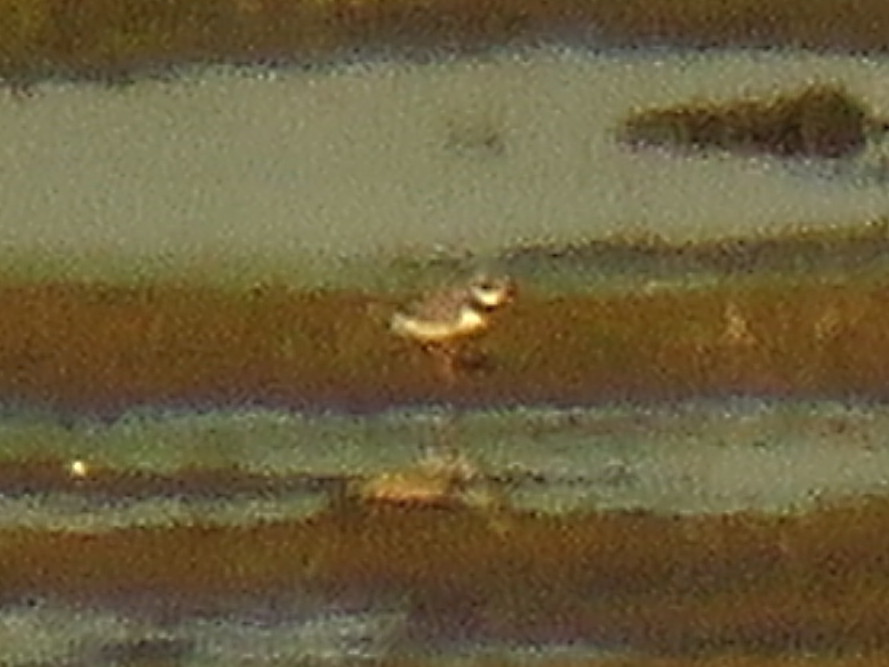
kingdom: Animalia
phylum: Chordata
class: Aves
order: Charadriiformes
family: Charadriidae
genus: Charadrius
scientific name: Charadrius hiaticula
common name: Common ringed plover
